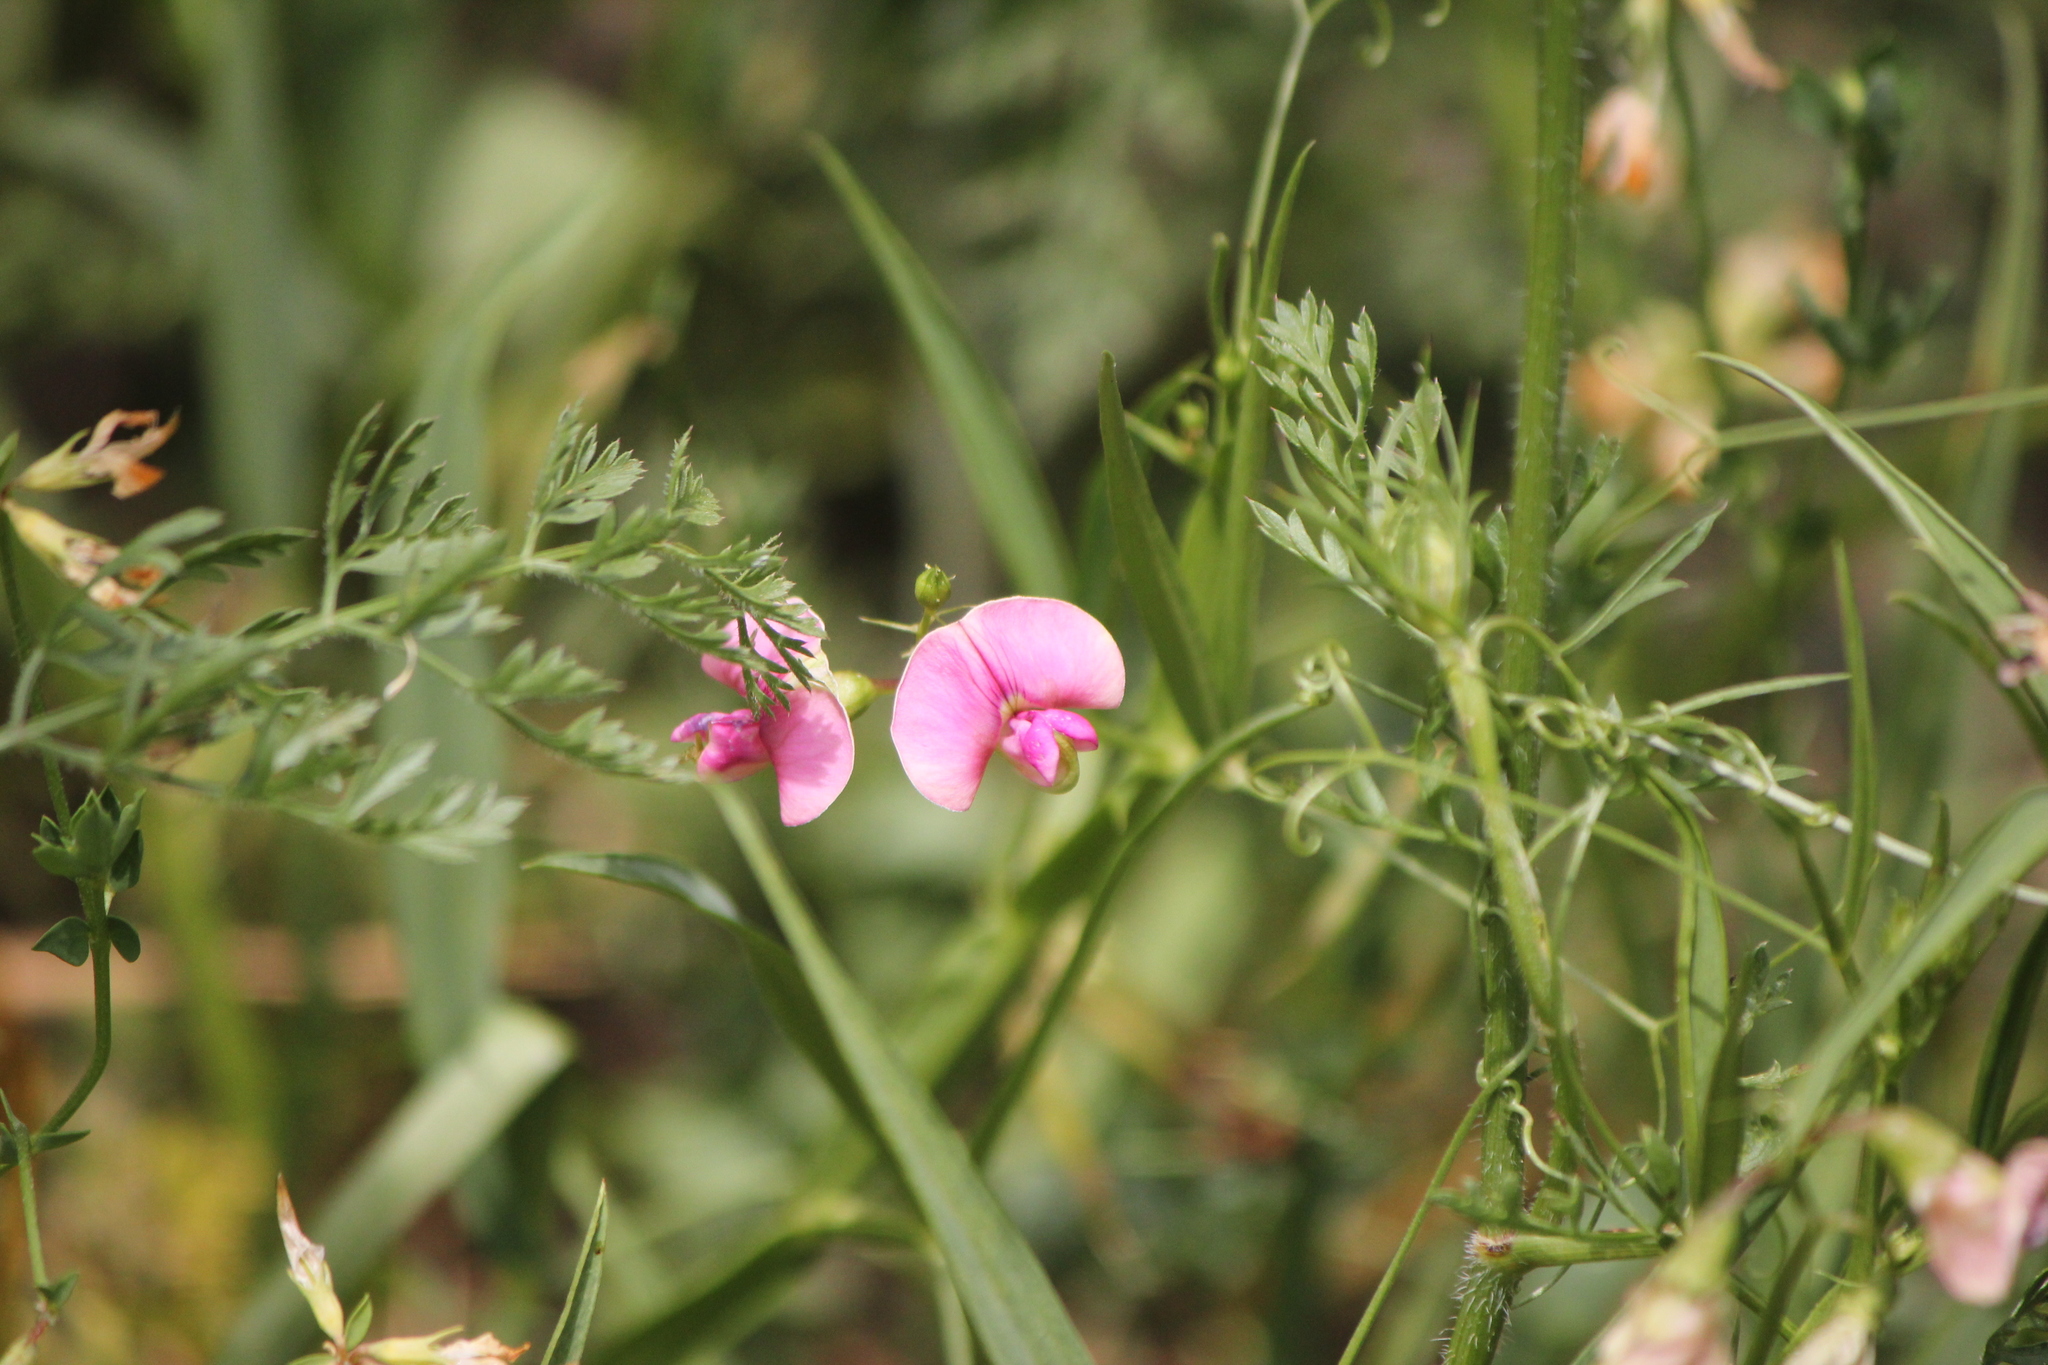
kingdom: Plantae
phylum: Tracheophyta
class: Magnoliopsida
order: Fabales
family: Fabaceae
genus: Lathyrus
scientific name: Lathyrus latifolius
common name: Perennial pea
